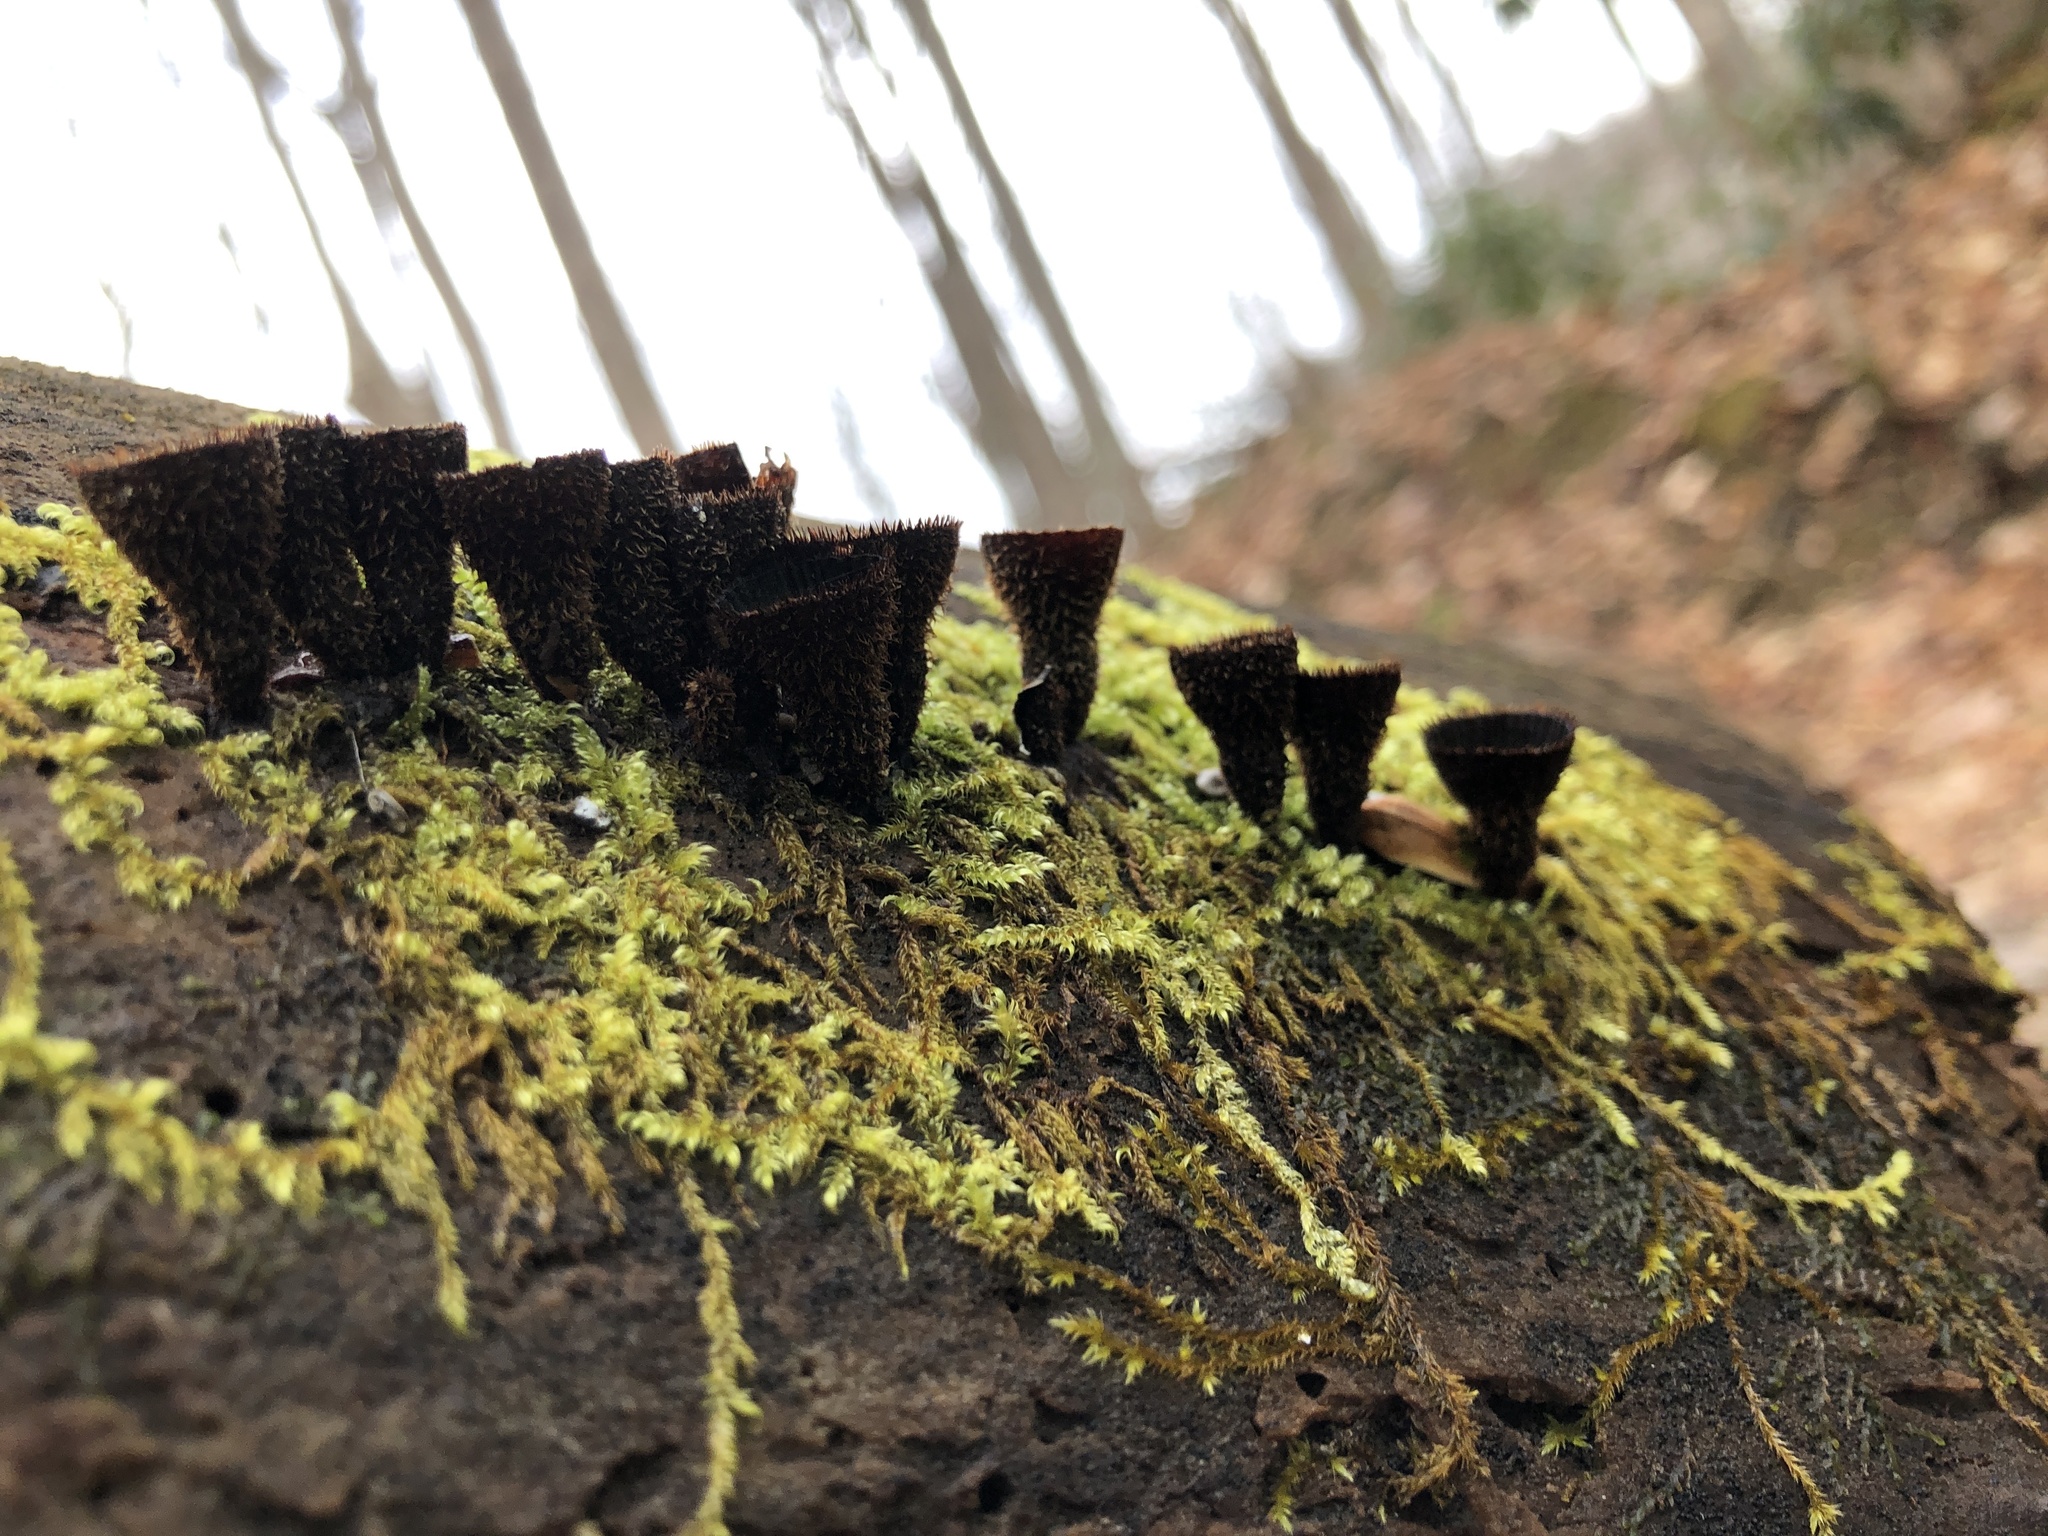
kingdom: Fungi
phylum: Basidiomycota
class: Agaricomycetes
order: Agaricales
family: Agaricaceae
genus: Cyathus
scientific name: Cyathus striatus
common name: Fluted bird's nest
